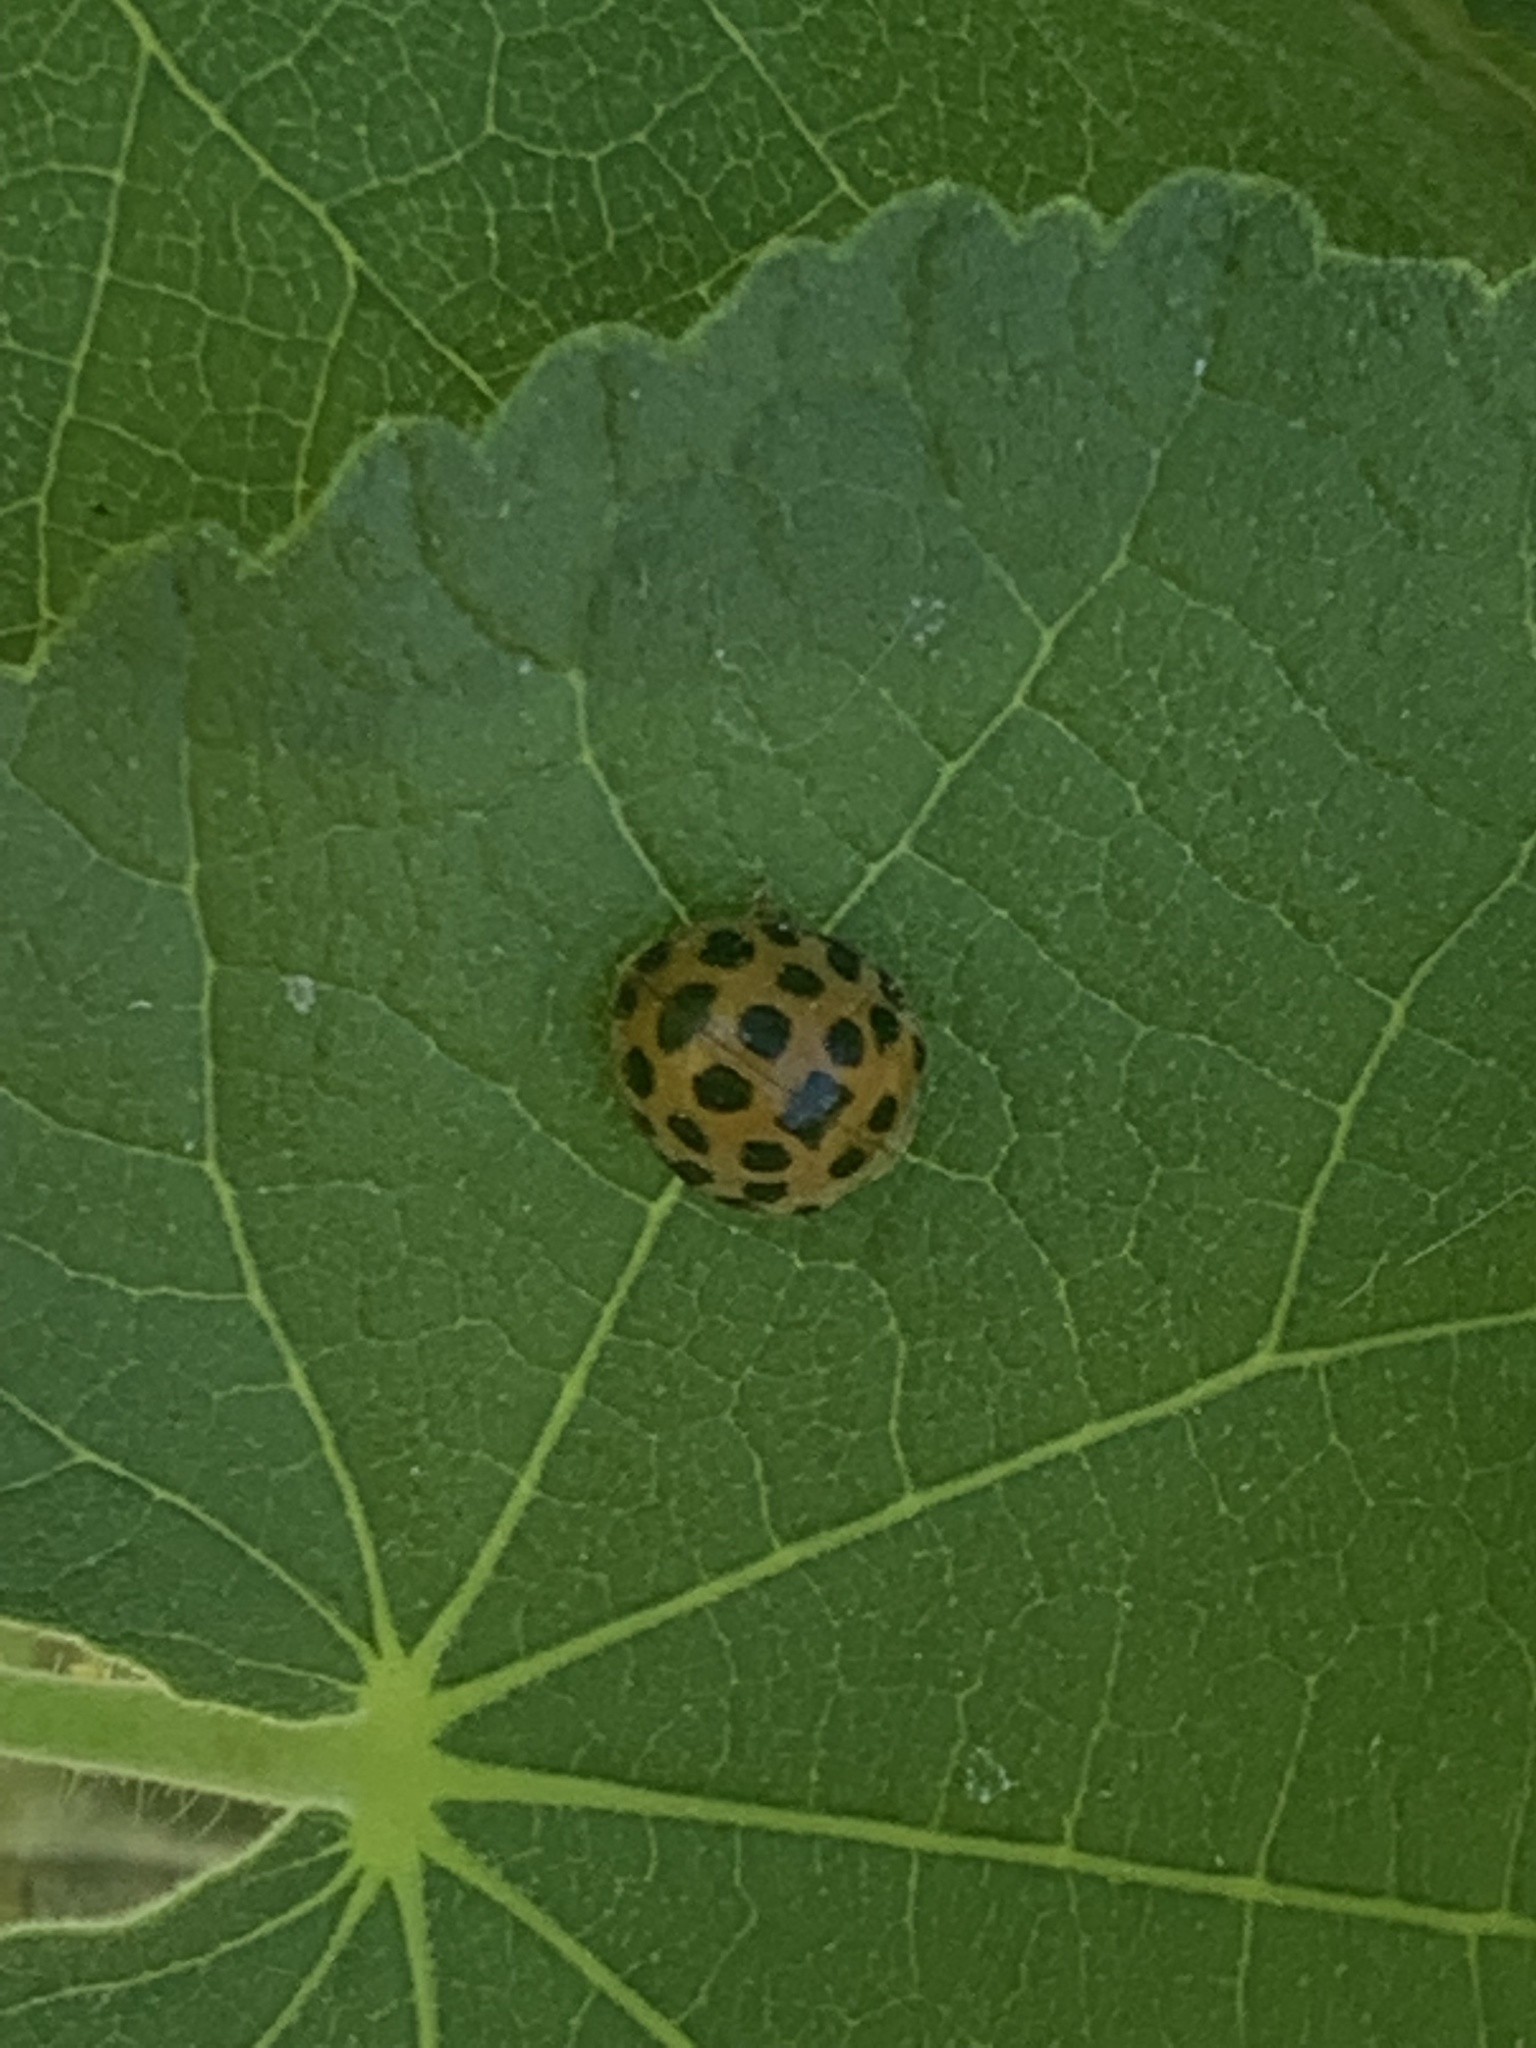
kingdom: Animalia
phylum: Arthropoda
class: Insecta
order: Coleoptera
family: Coccinellidae
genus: Henosepilachna
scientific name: Henosepilachna vigintioctopunctata
